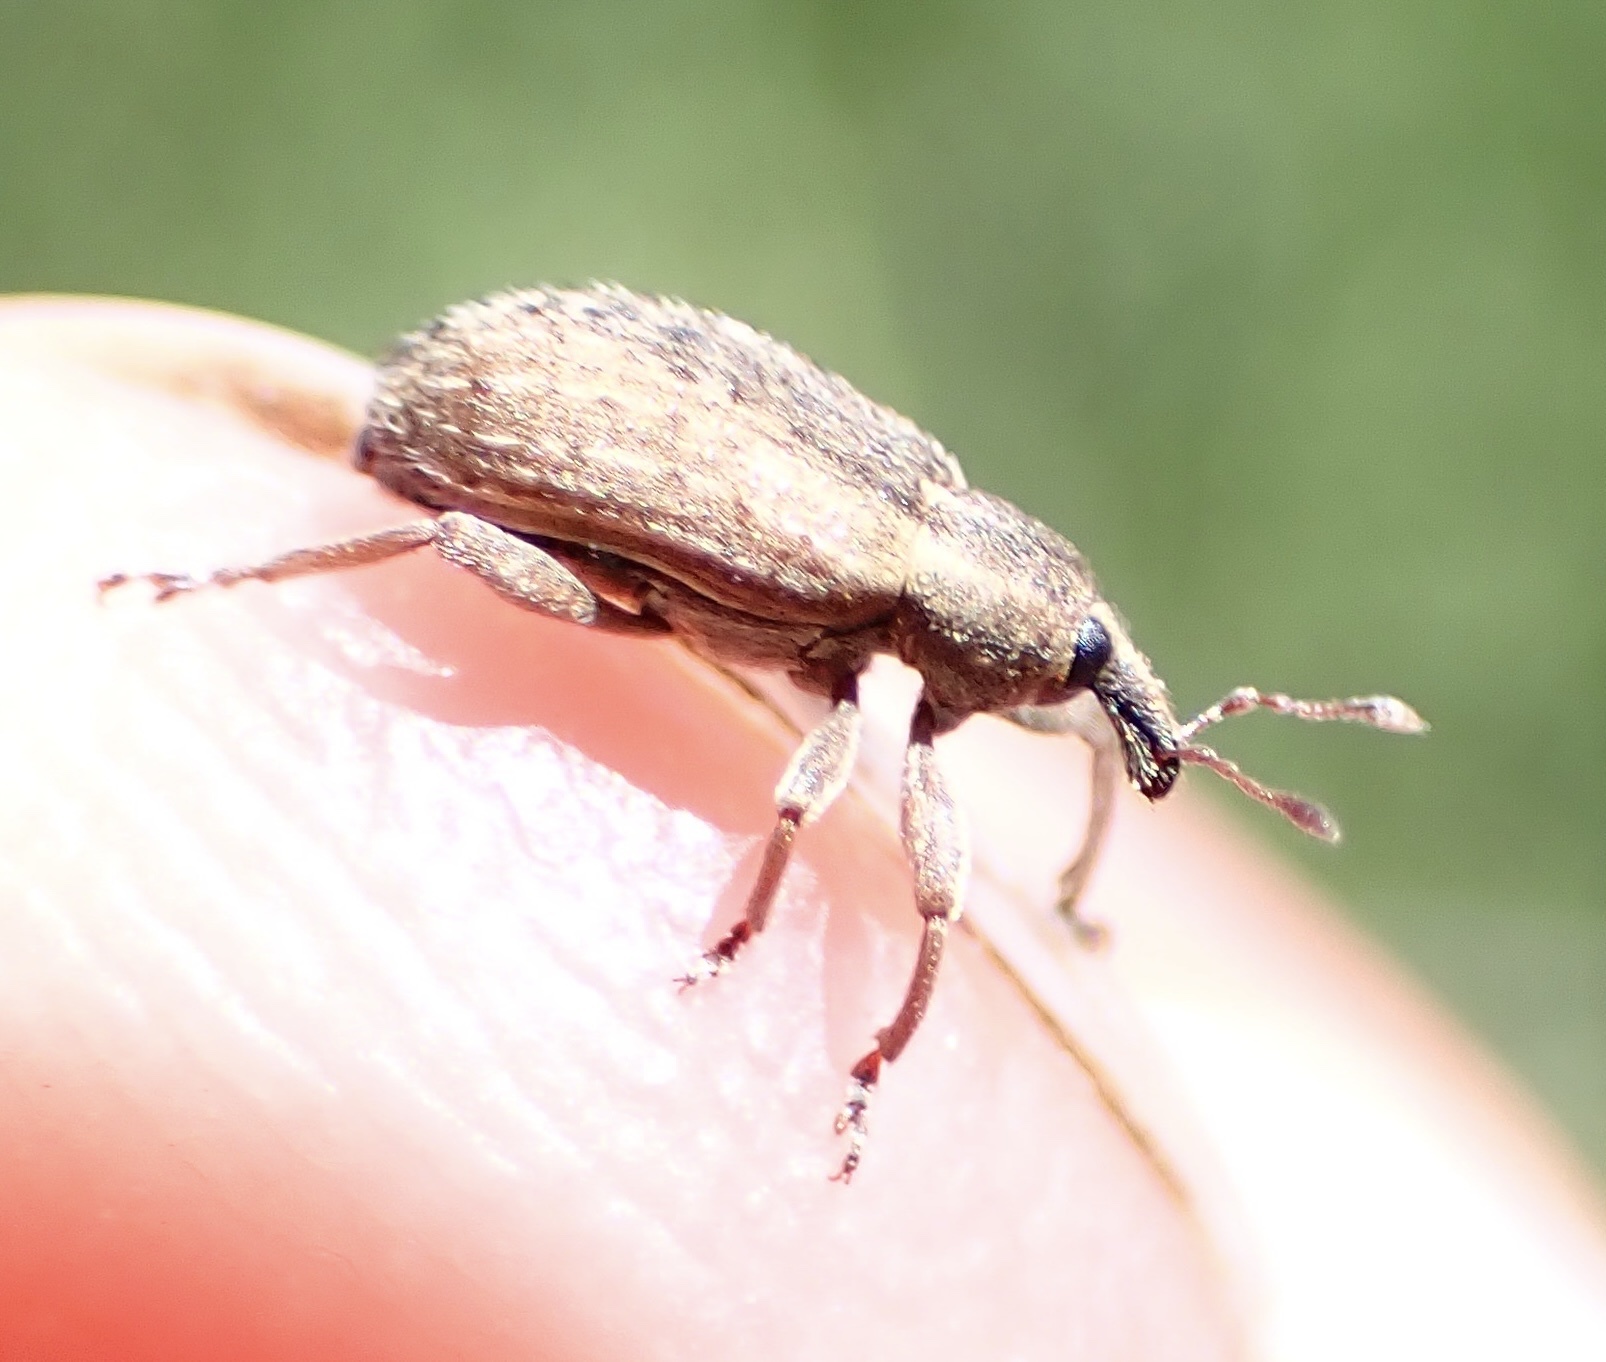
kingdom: Animalia
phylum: Arthropoda
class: Insecta
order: Coleoptera
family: Curculionidae
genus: Hypera
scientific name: Hypera postica
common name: Weevil
